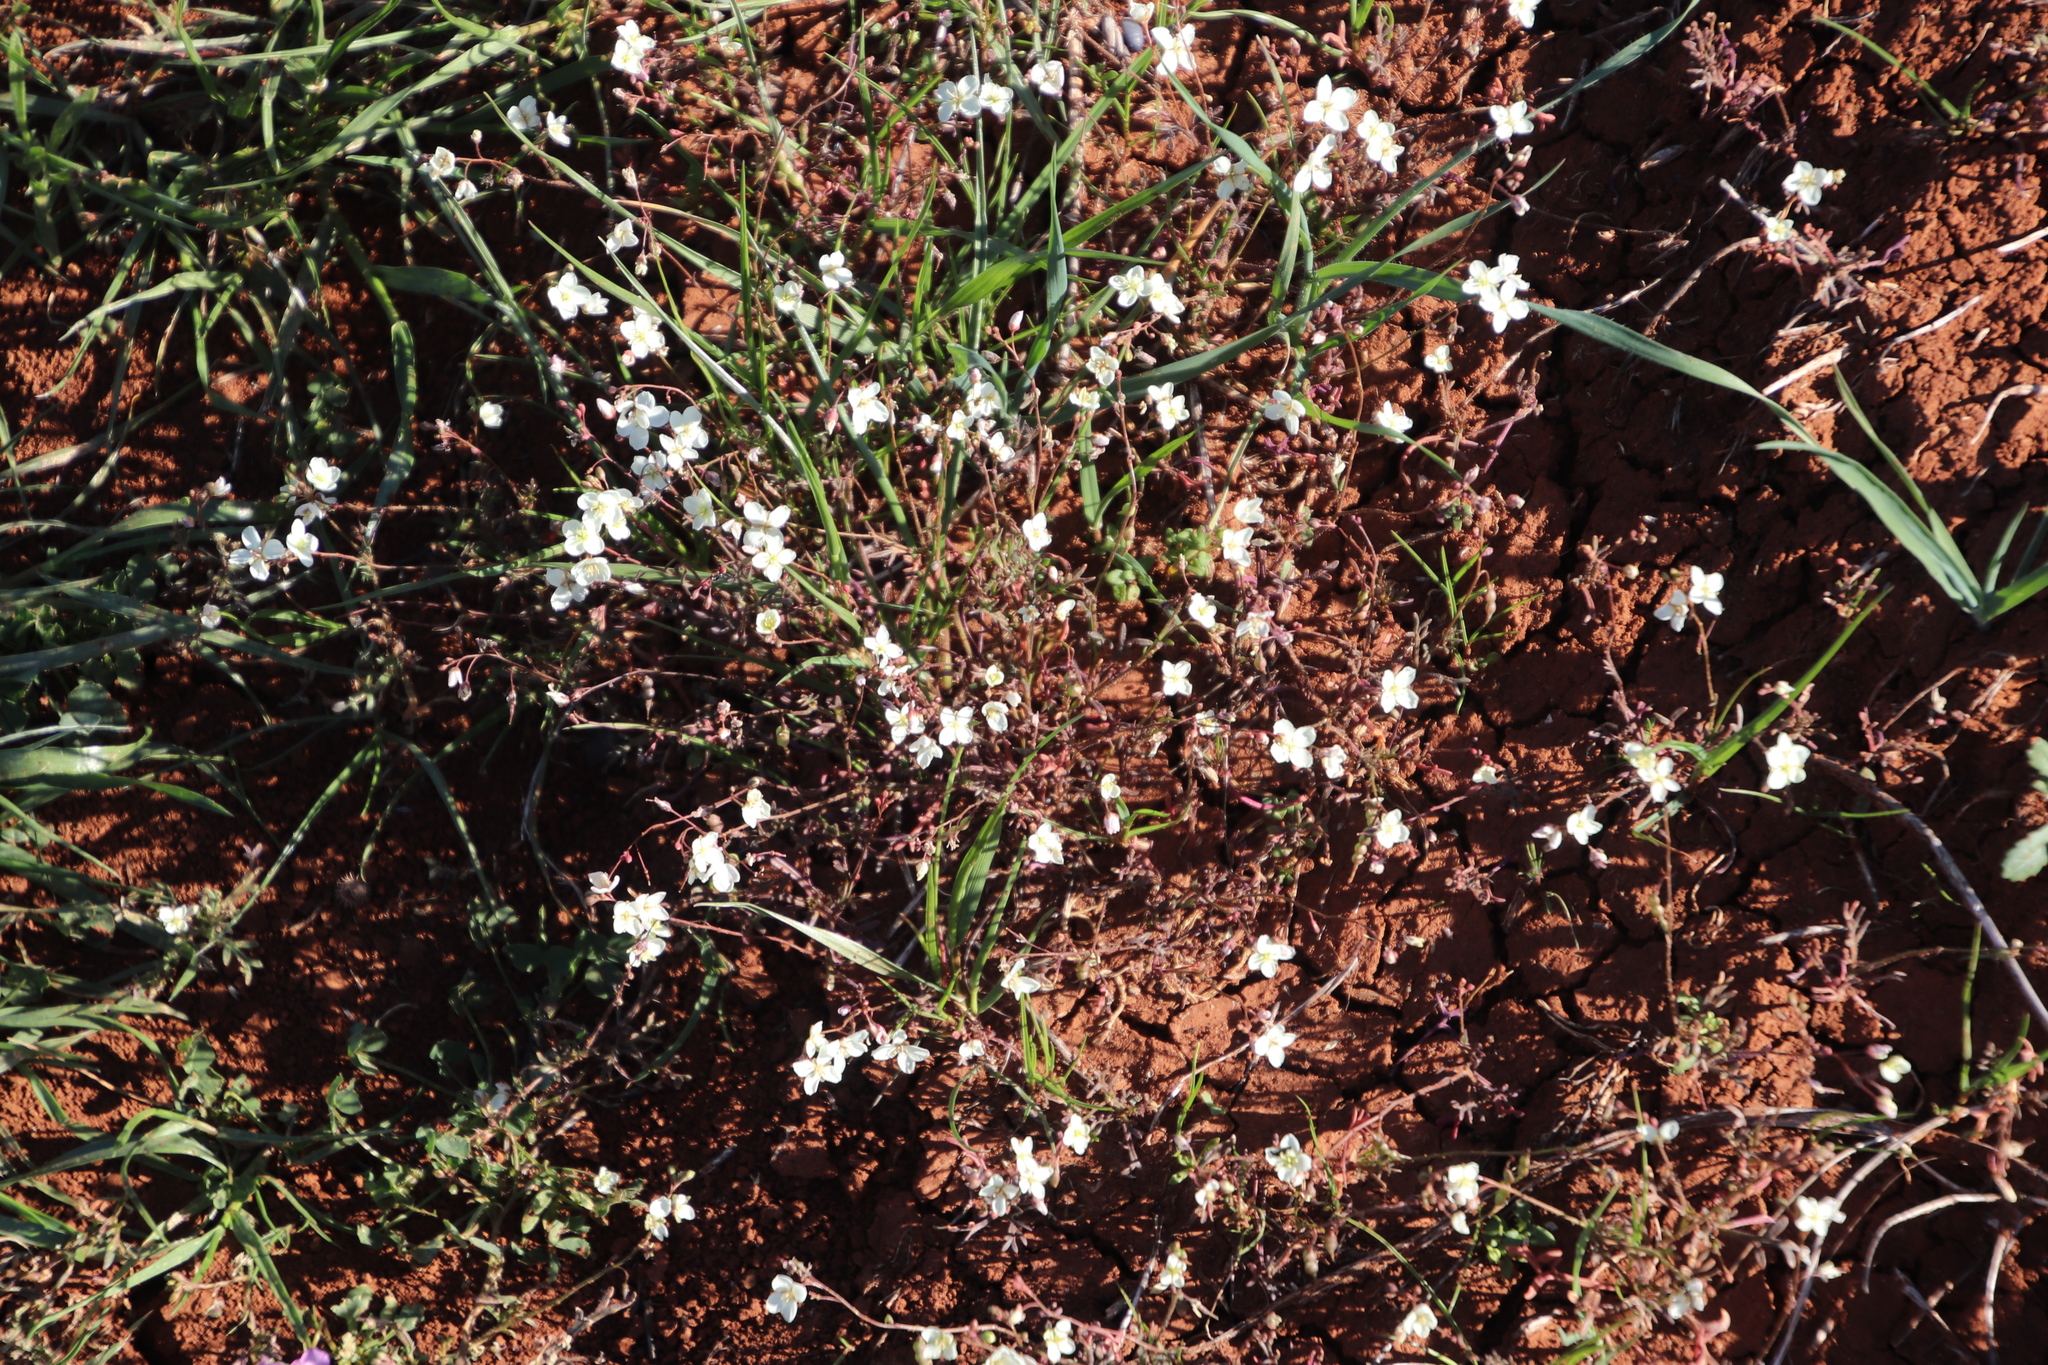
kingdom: Plantae
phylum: Tracheophyta
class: Magnoliopsida
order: Brassicales
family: Brassicaceae
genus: Heliophila
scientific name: Heliophila collina
